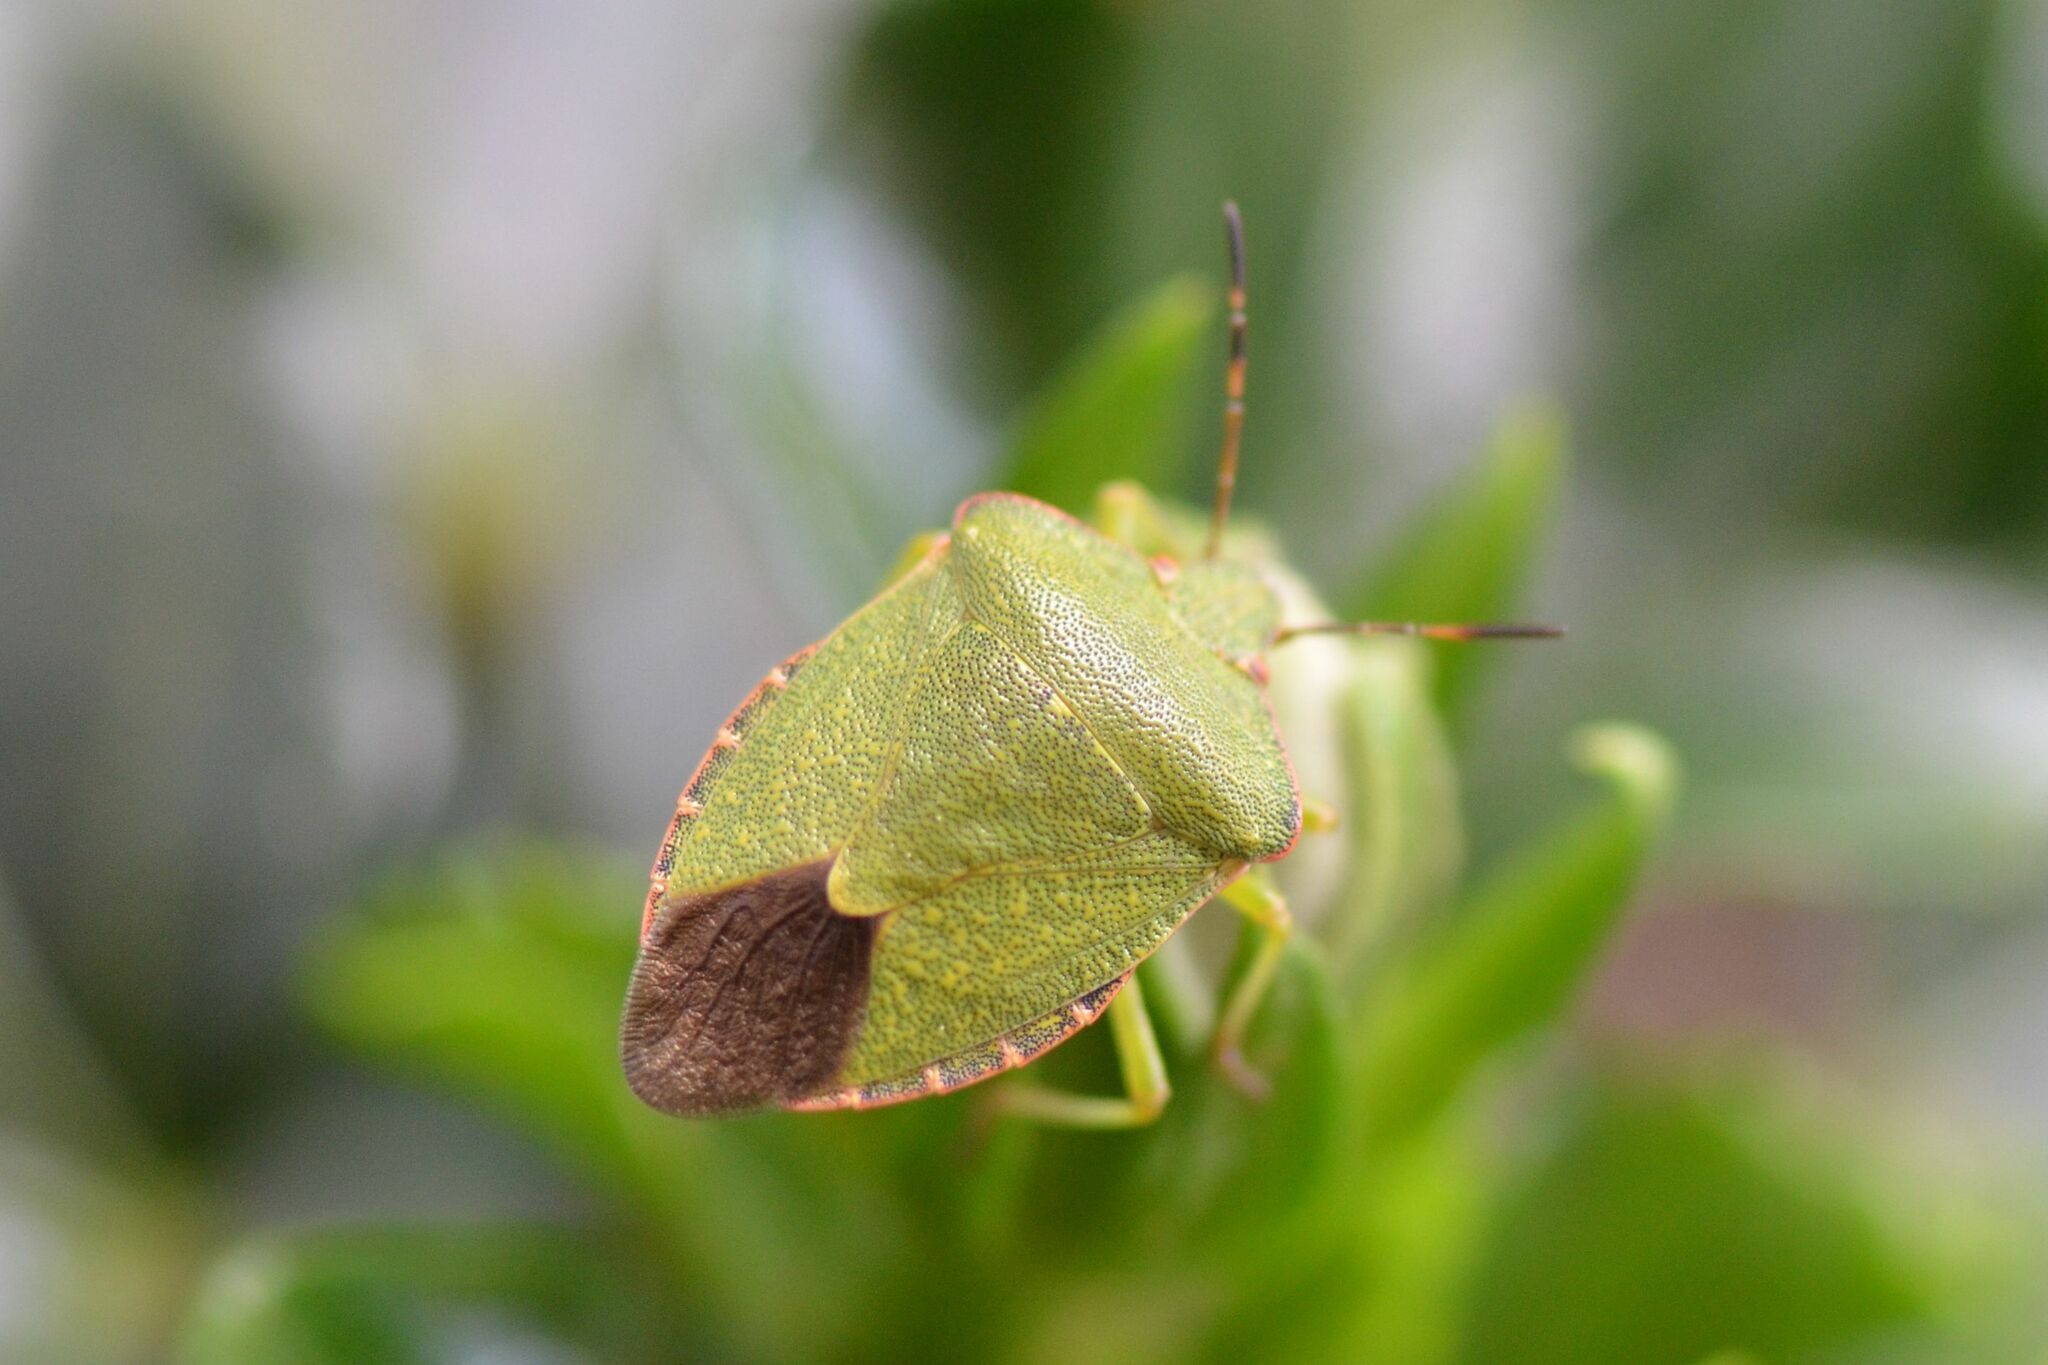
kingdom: Animalia
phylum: Arthropoda
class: Insecta
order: Hemiptera
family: Pentatomidae
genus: Palomena
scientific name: Palomena prasina
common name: Green shieldbug
